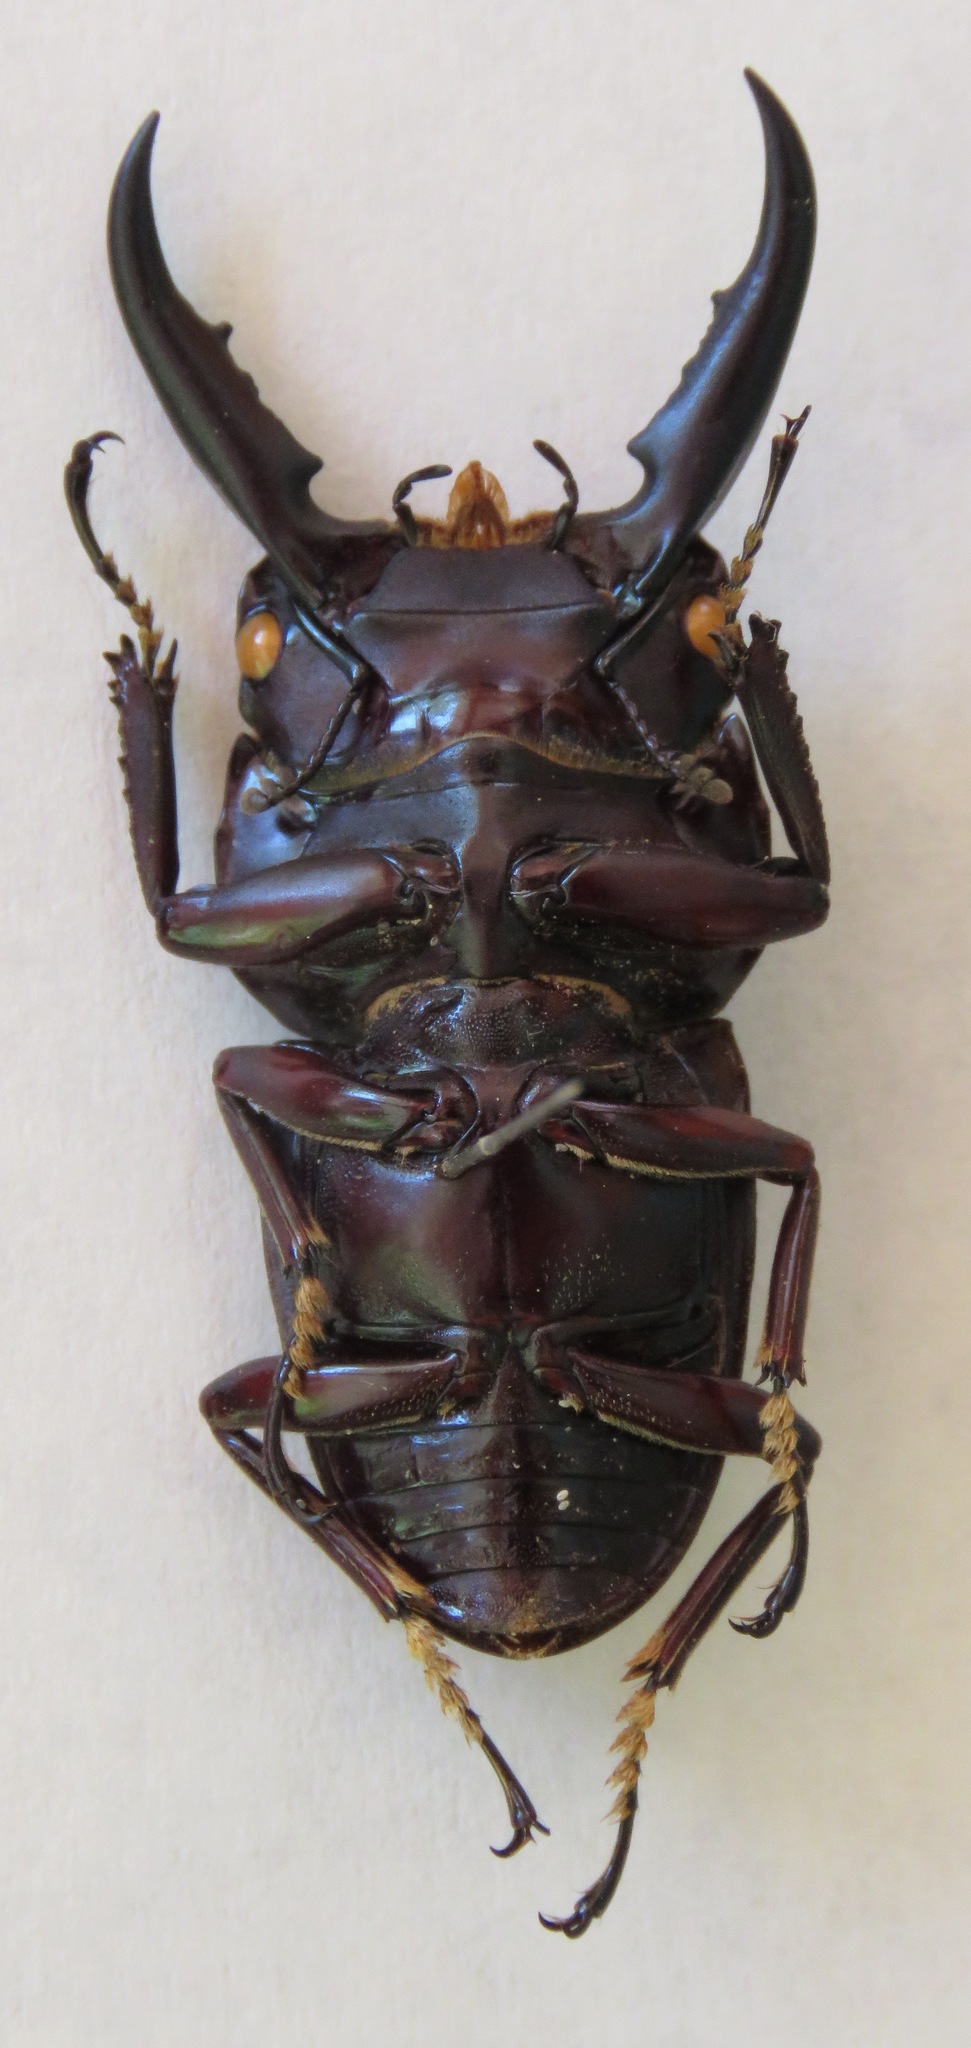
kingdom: Animalia
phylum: Arthropoda
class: Insecta
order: Coleoptera
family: Lucanidae
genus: Dorcus
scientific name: Dorcus ternatensis
